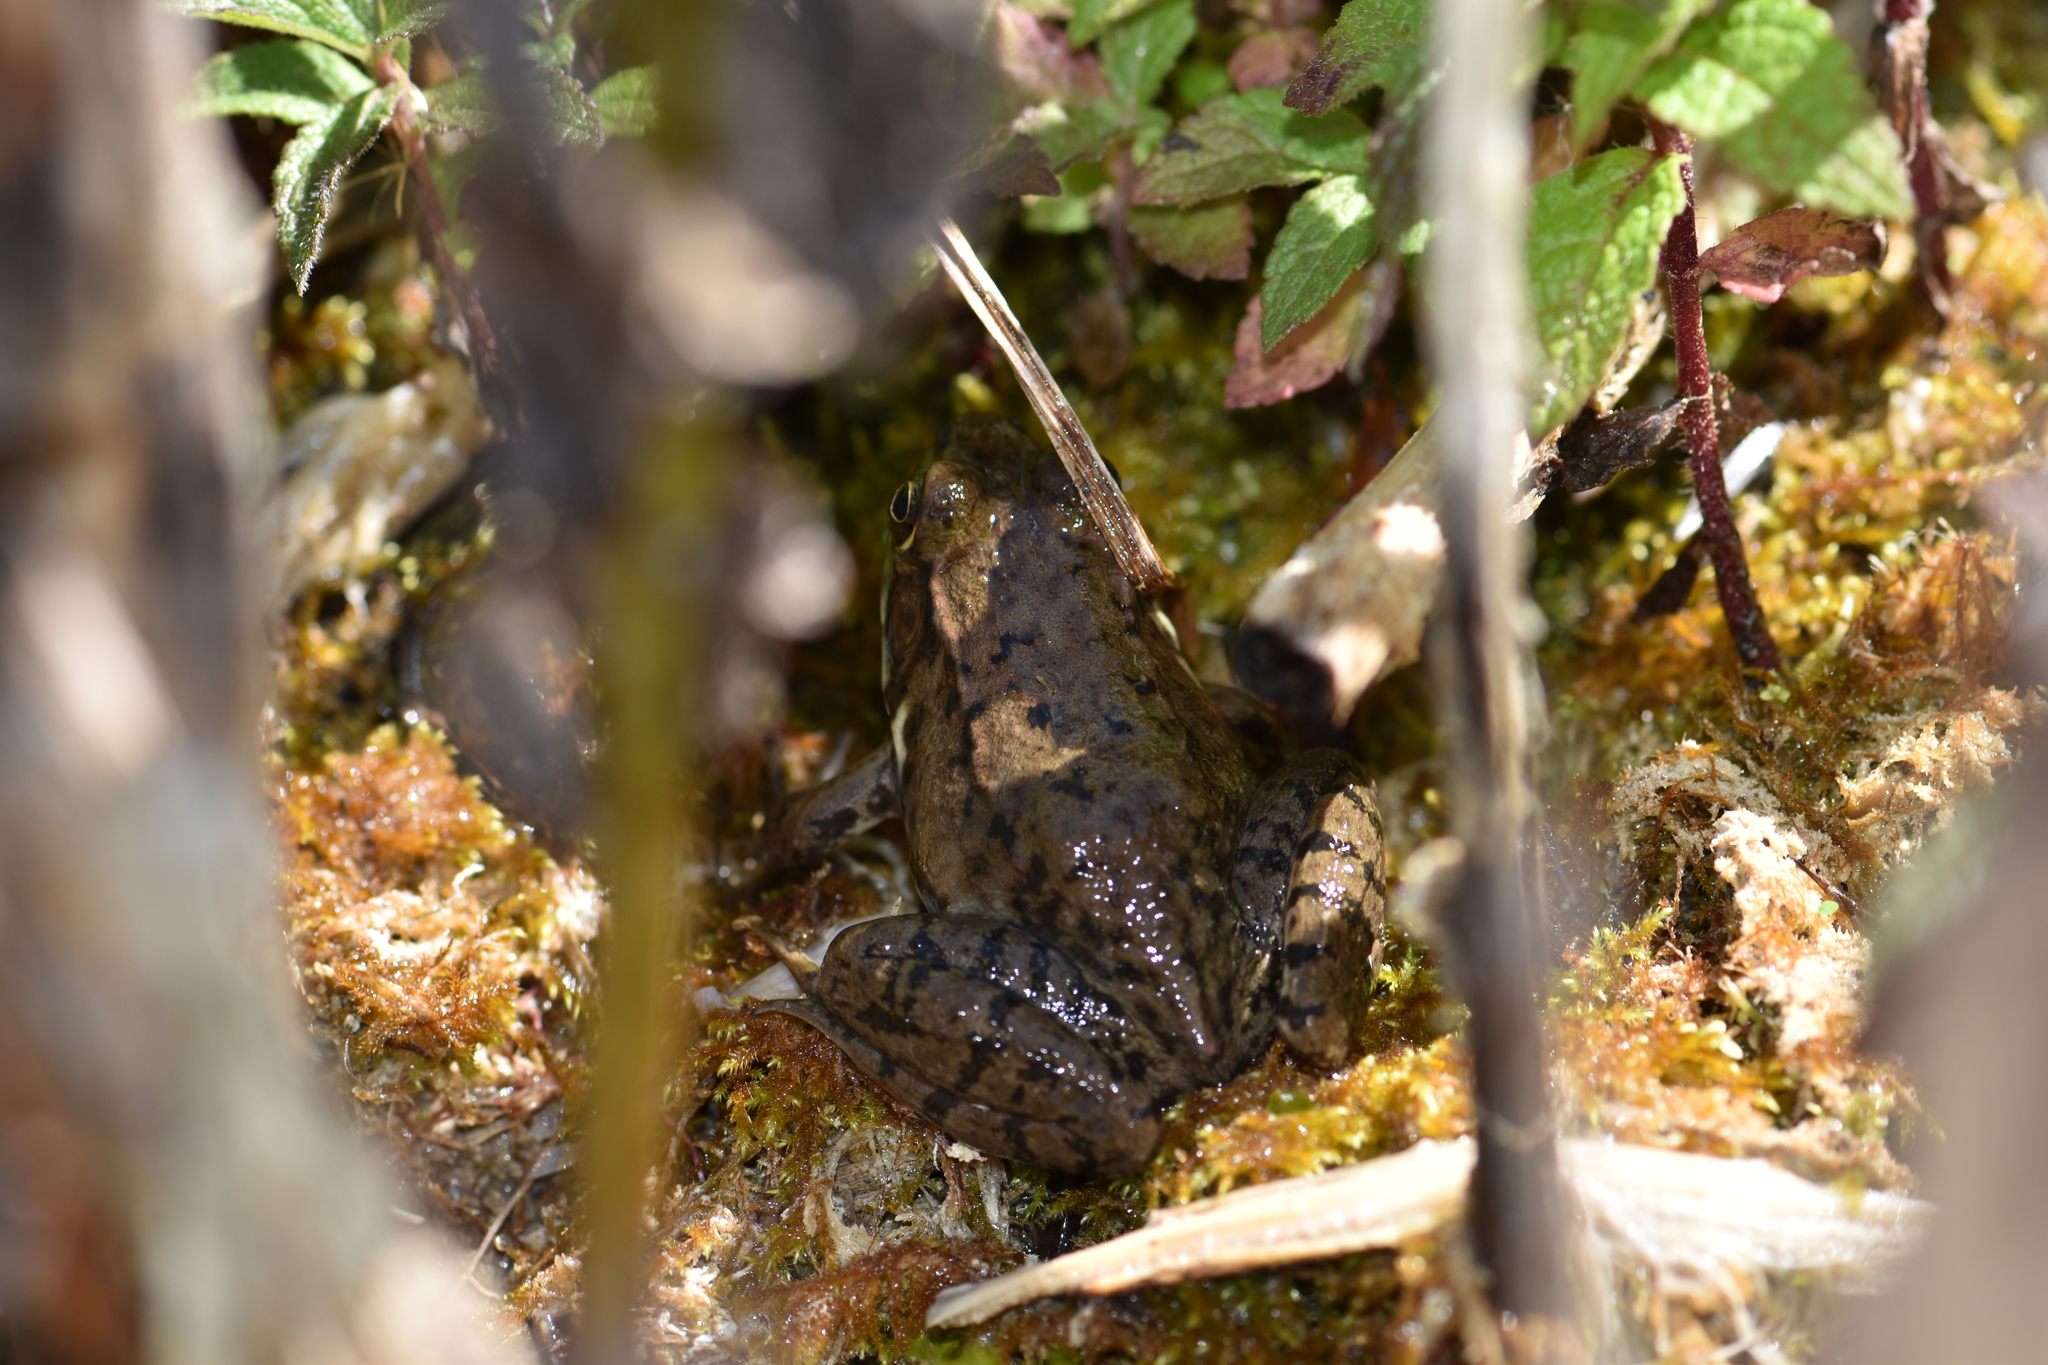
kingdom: Animalia
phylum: Chordata
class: Amphibia
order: Anura
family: Ranidae
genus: Lithobates
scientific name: Lithobates clamitans
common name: Green frog
